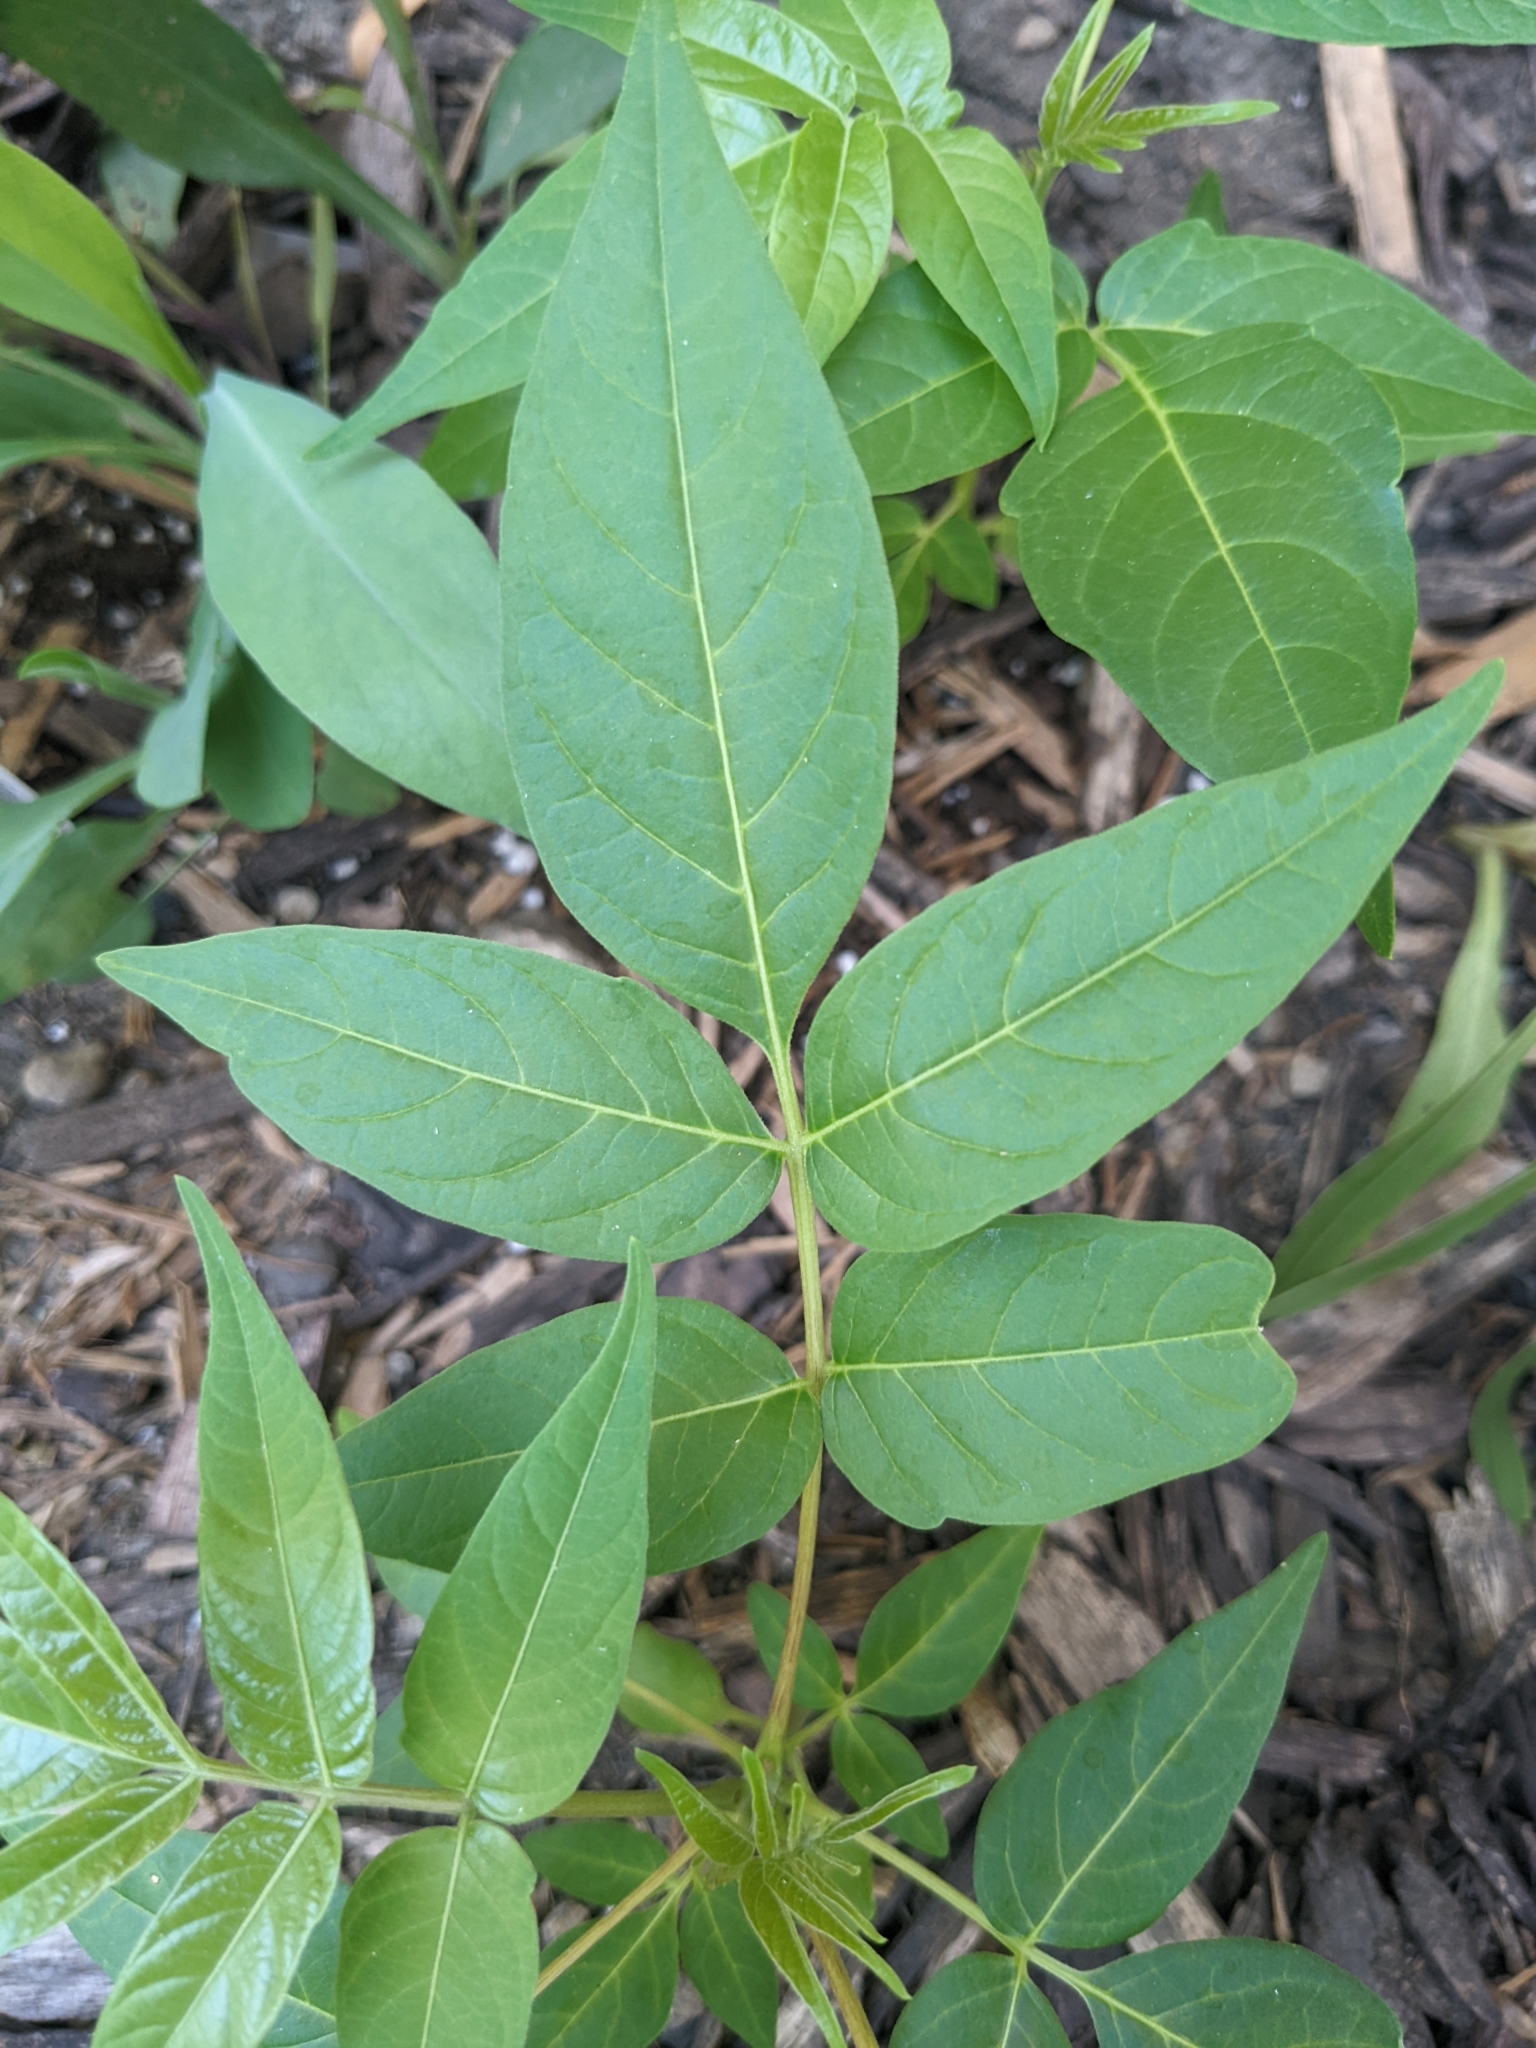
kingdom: Plantae
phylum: Tracheophyta
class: Magnoliopsida
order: Sapindales
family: Simaroubaceae
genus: Ailanthus
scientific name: Ailanthus altissima
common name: Tree-of-heaven
